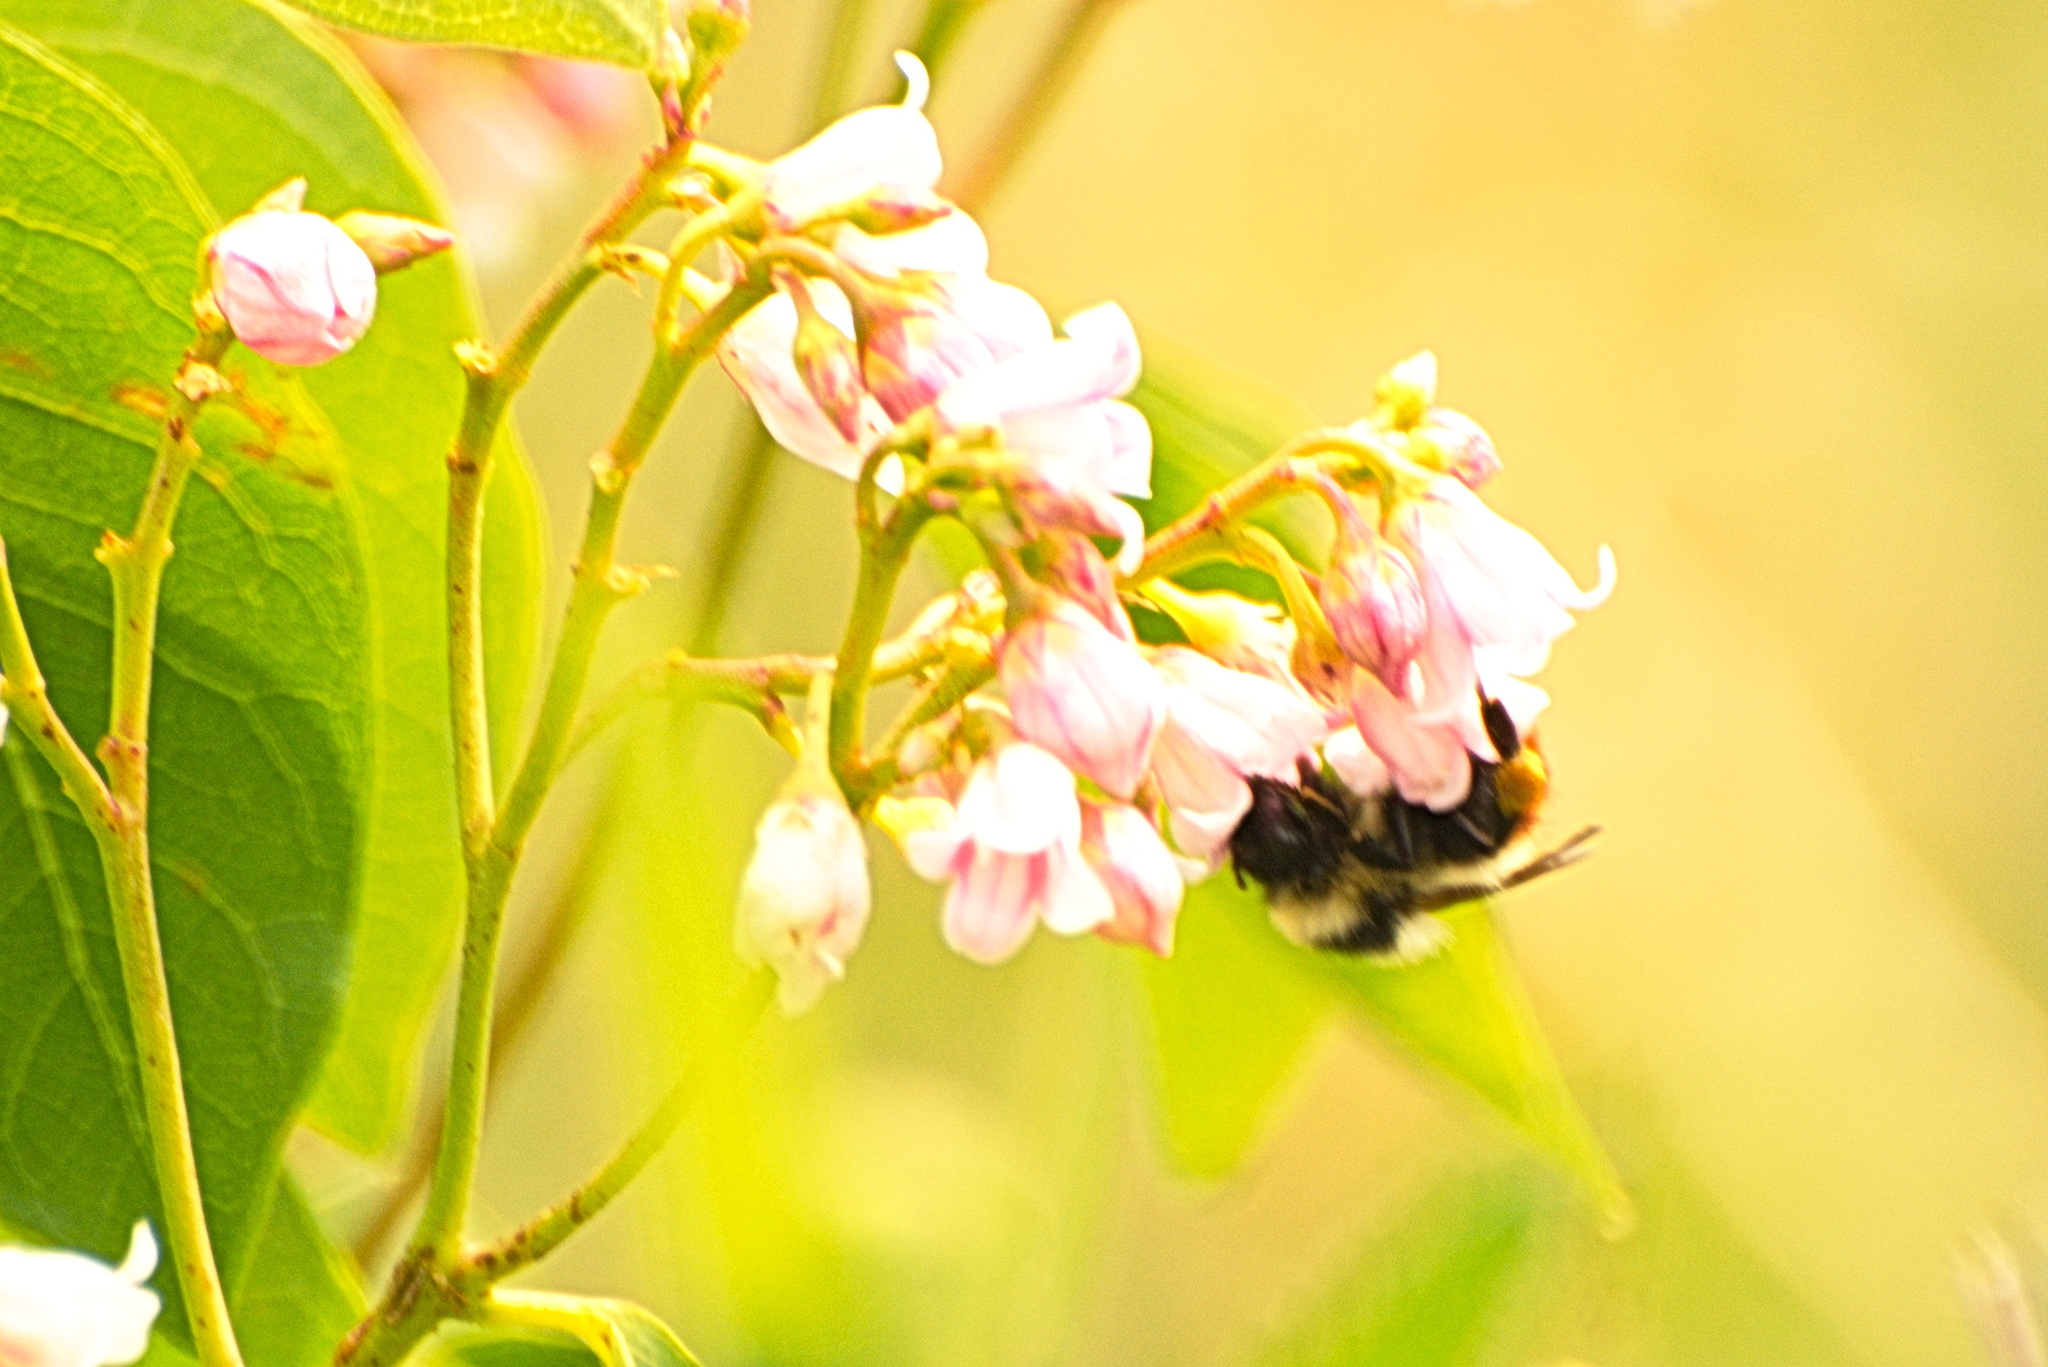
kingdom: Animalia
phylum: Arthropoda
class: Insecta
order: Hymenoptera
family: Apidae
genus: Bombus
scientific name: Bombus rufocinctus
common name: Red-belted bumble bee
